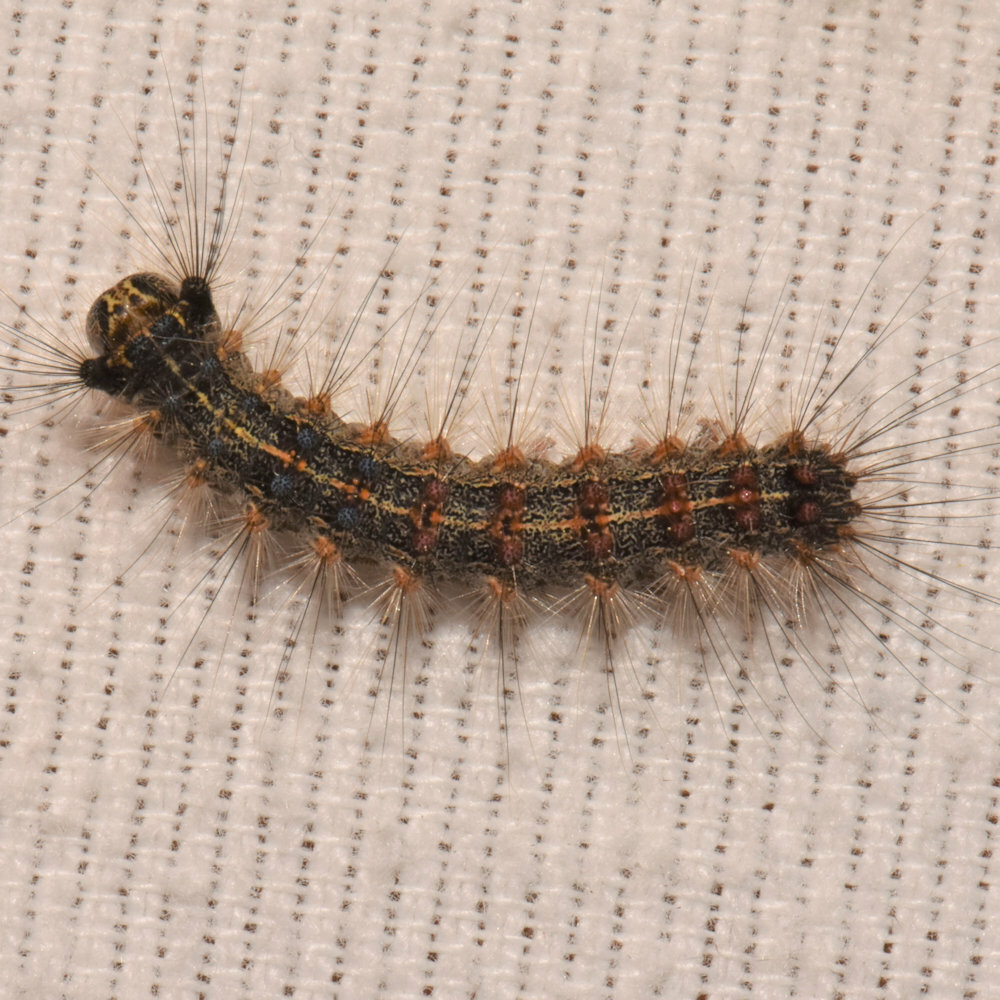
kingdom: Animalia
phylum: Arthropoda
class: Insecta
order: Lepidoptera
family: Erebidae
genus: Lymantria
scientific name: Lymantria dispar
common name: Gypsy moth
